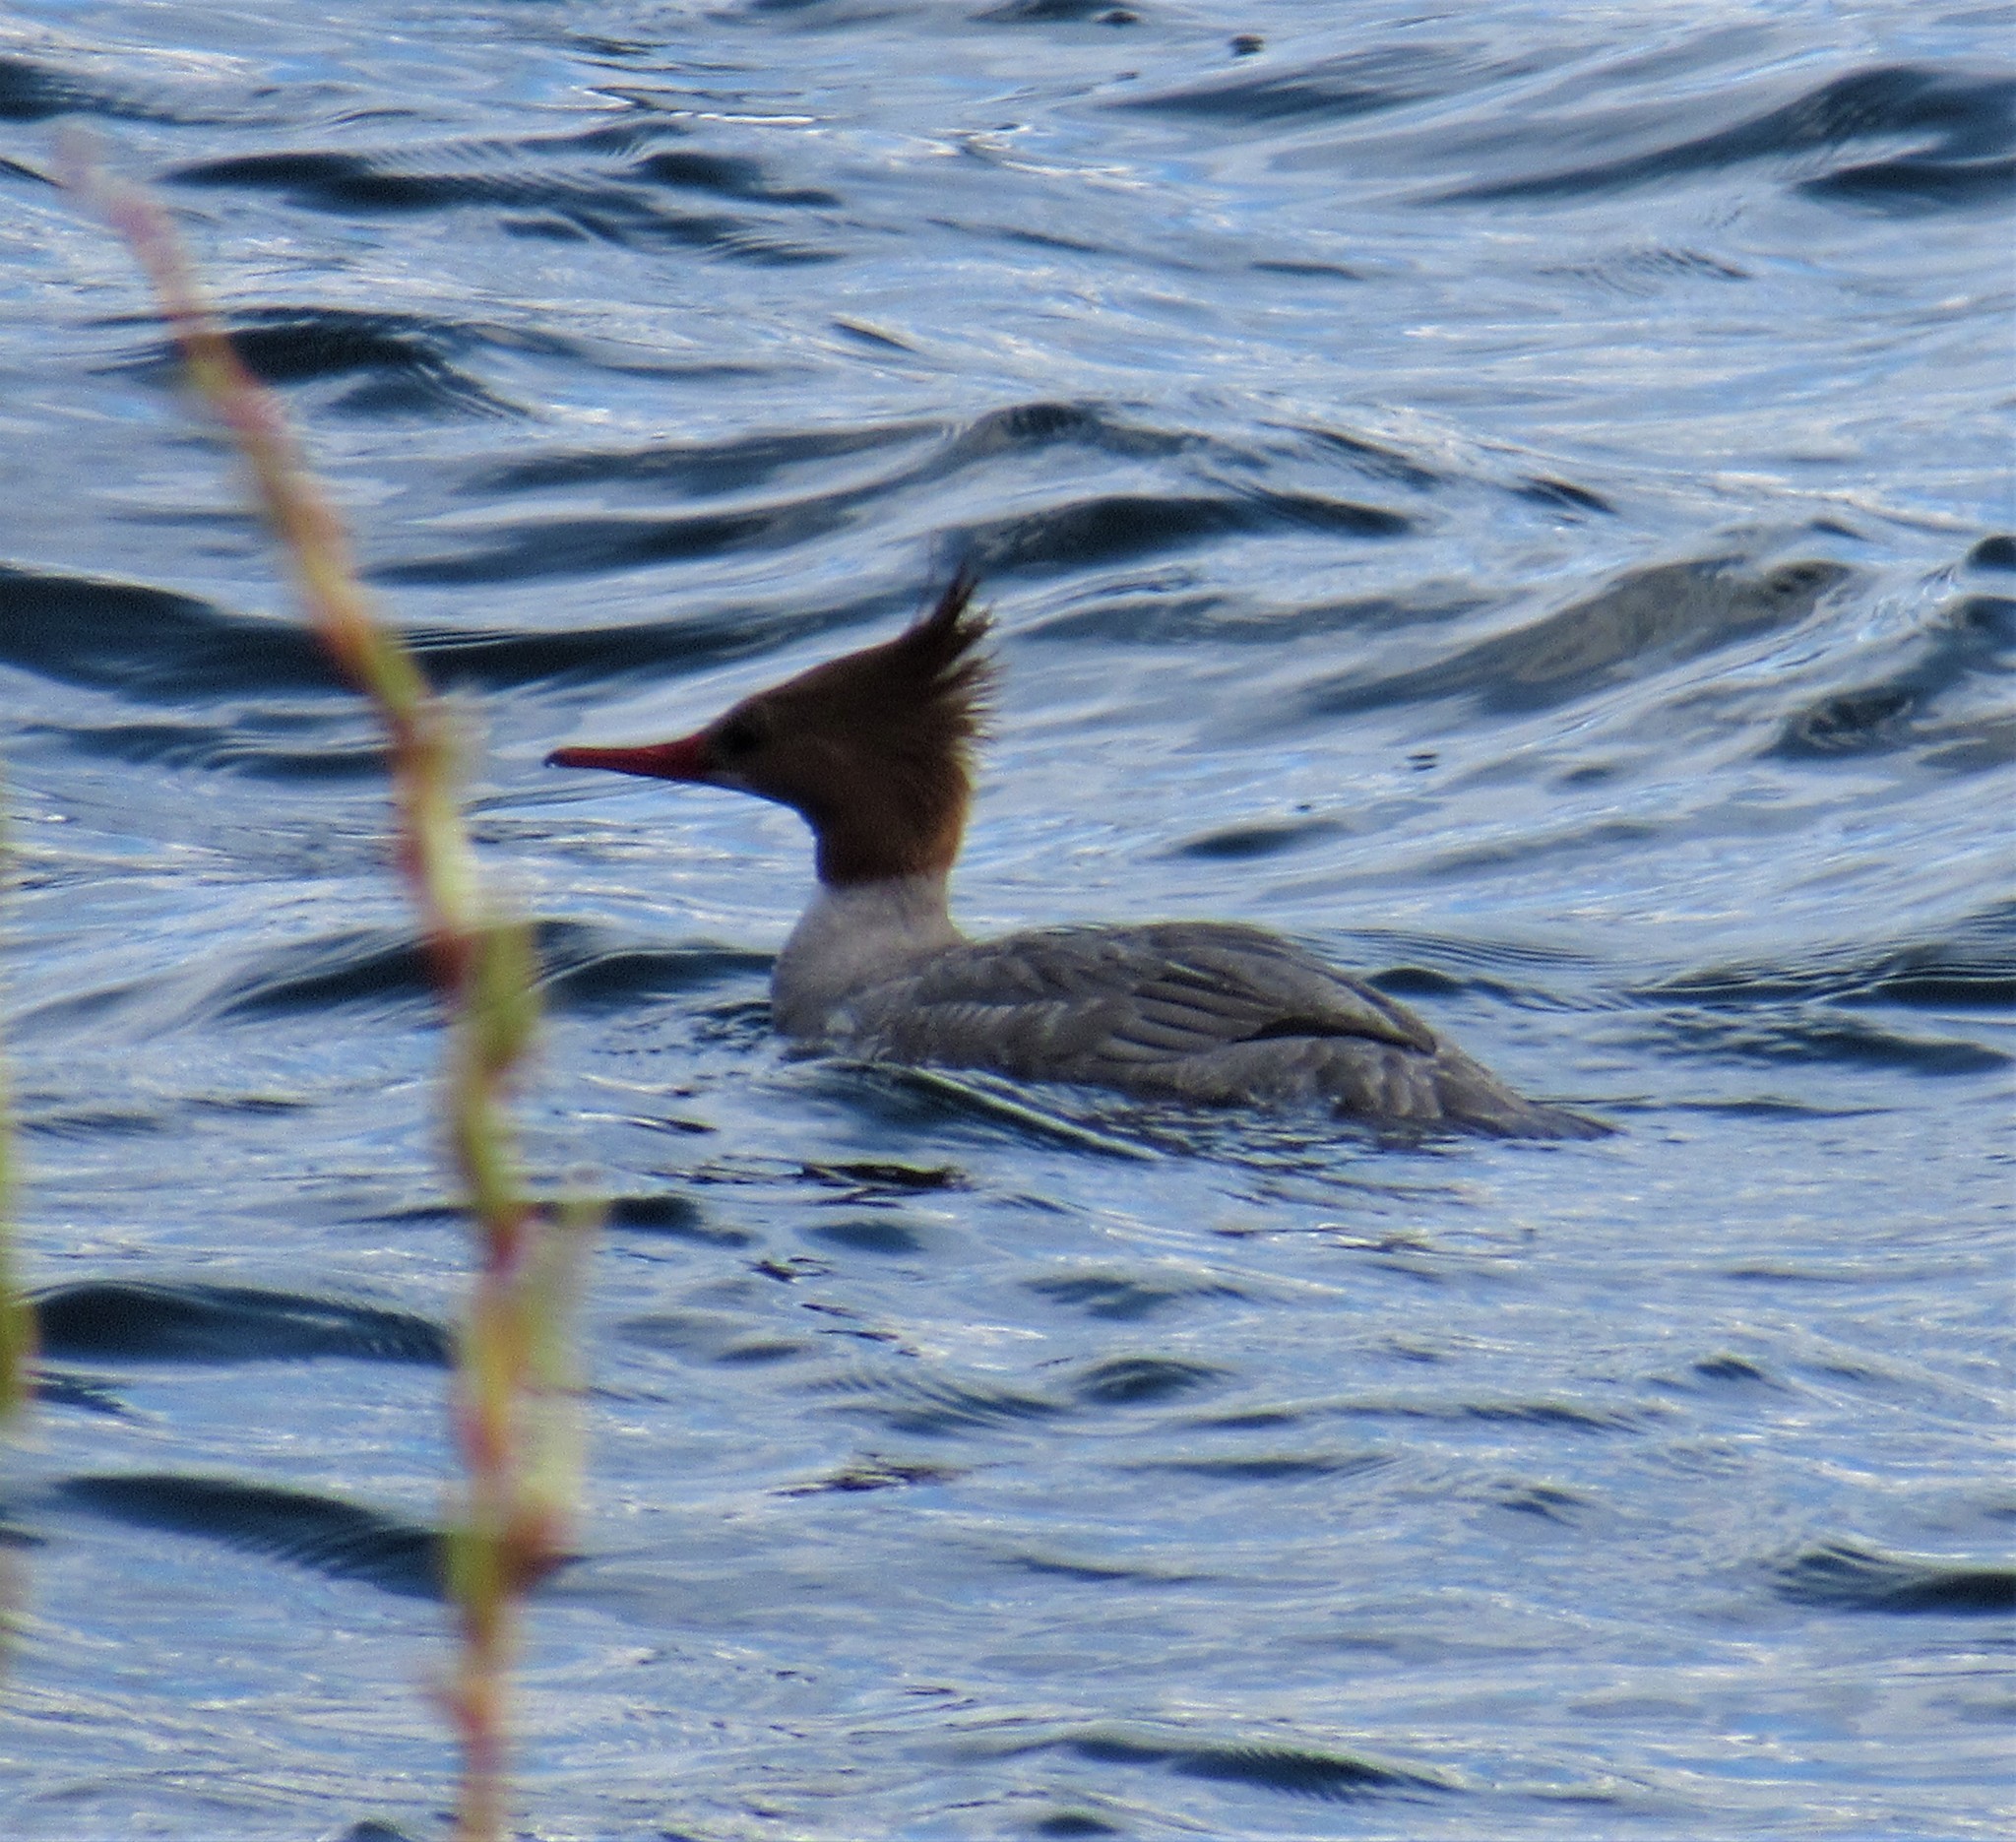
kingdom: Animalia
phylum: Chordata
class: Aves
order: Anseriformes
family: Anatidae
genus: Mergus
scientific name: Mergus merganser
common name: Common merganser
